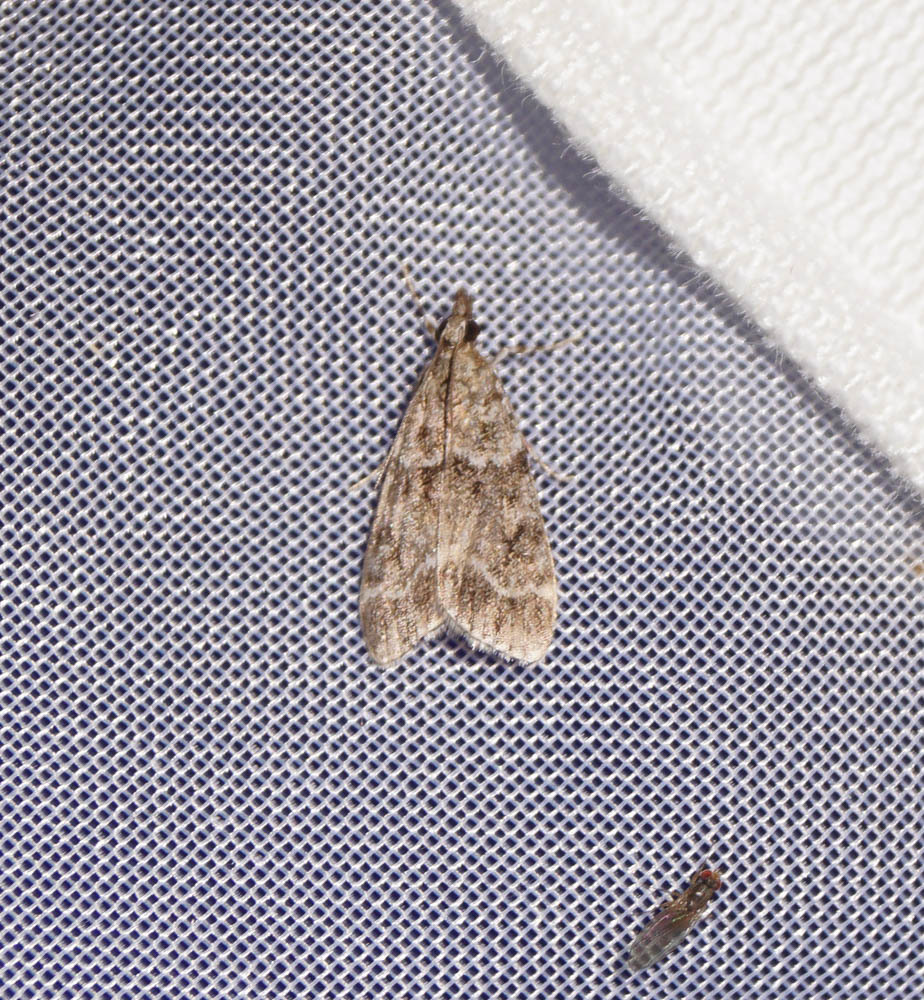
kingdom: Animalia
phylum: Arthropoda
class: Insecta
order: Lepidoptera
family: Crambidae
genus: Eudonia
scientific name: Eudonia mercurella
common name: Small grey
